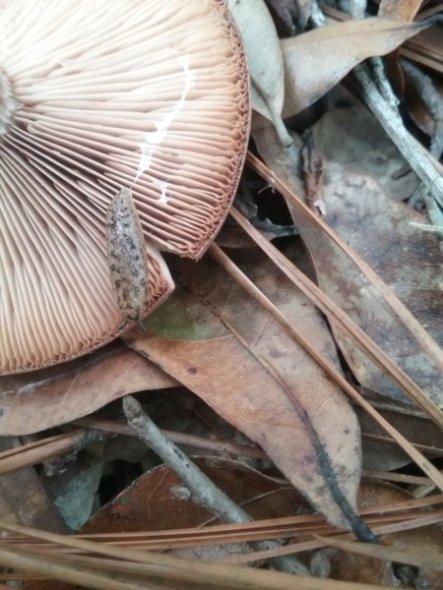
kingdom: Animalia
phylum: Mollusca
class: Gastropoda
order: Stylommatophora
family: Philomycidae
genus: Philomycus
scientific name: Philomycus carolinianus
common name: Carolina mantleslug
